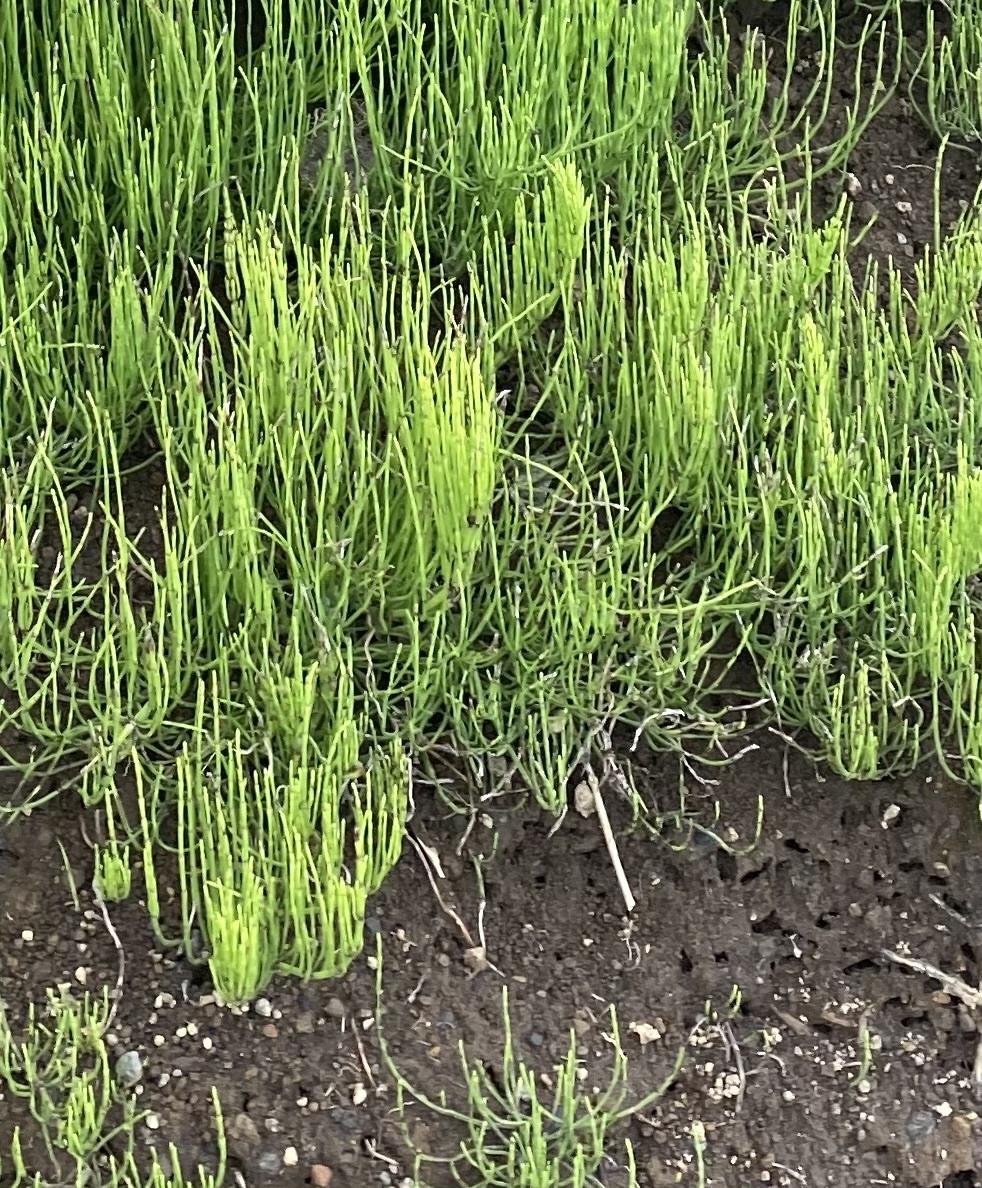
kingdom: Plantae
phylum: Tracheophyta
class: Polypodiopsida
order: Equisetales
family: Equisetaceae
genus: Equisetum
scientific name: Equisetum arvense
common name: Field horsetail
